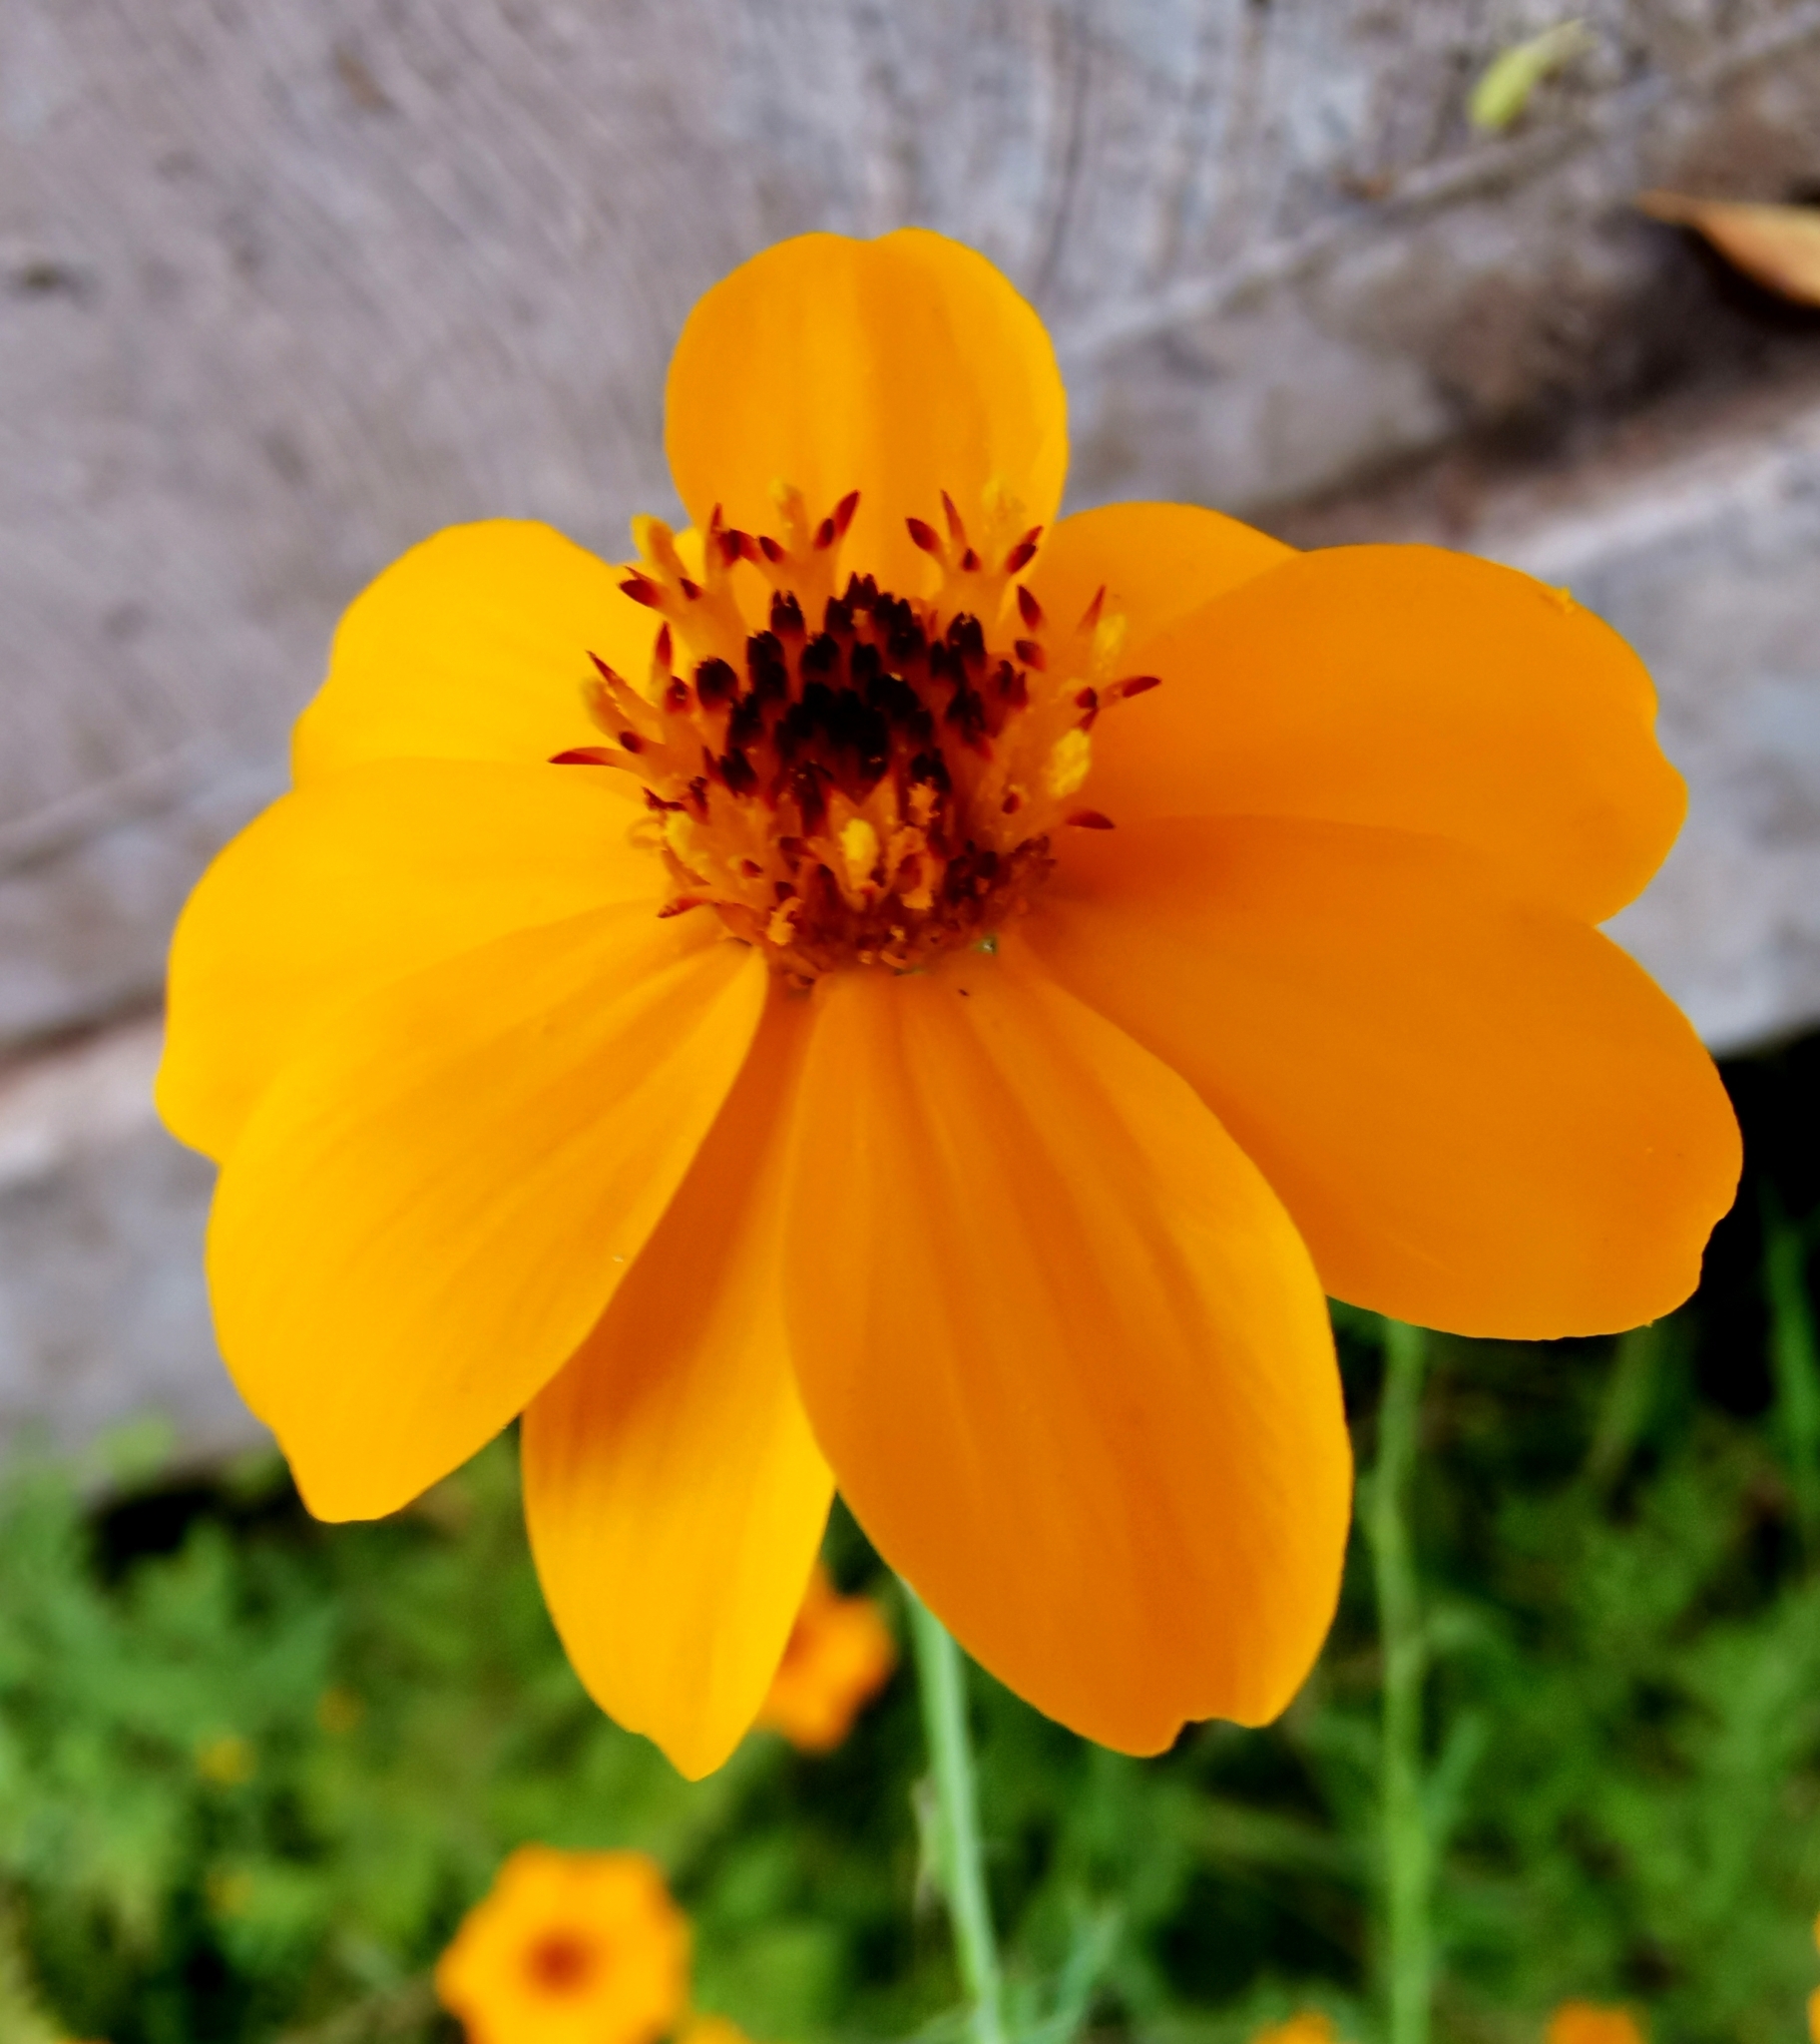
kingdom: Plantae
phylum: Tracheophyta
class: Magnoliopsida
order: Asterales
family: Asteraceae
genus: Adenophyllum
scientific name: Adenophyllum cancellatum
